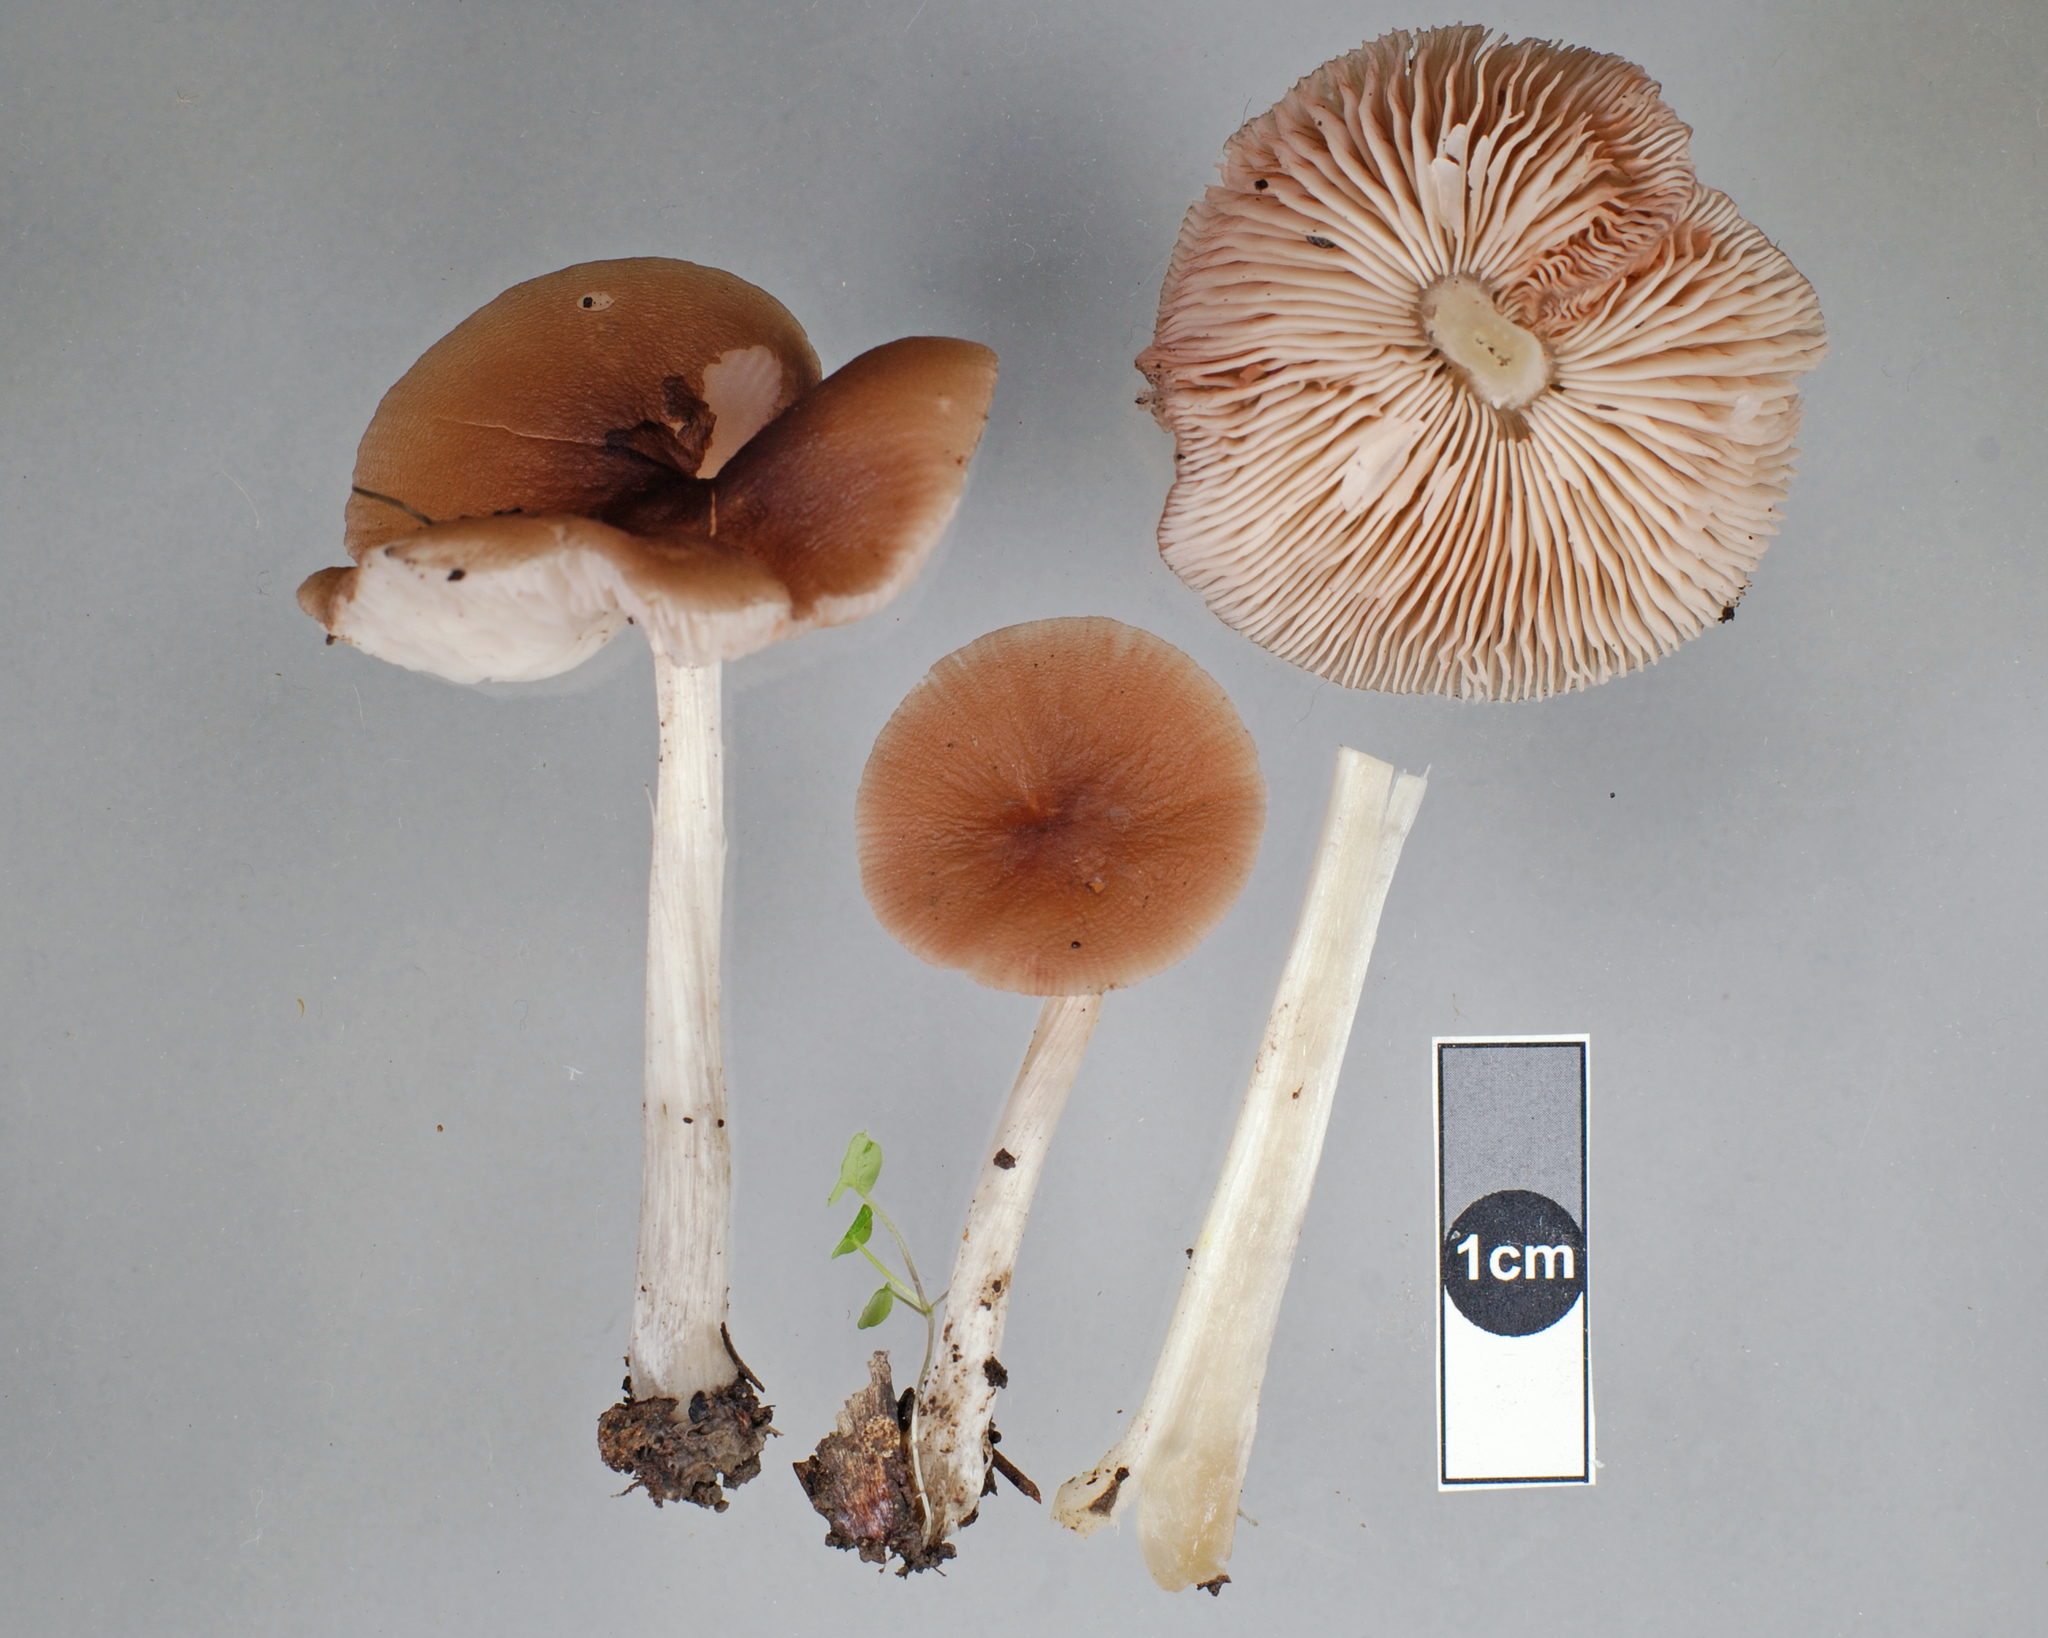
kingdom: Fungi
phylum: Basidiomycota
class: Agaricomycetes
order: Agaricales
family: Pluteaceae
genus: Pluteus
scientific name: Pluteus terricola
